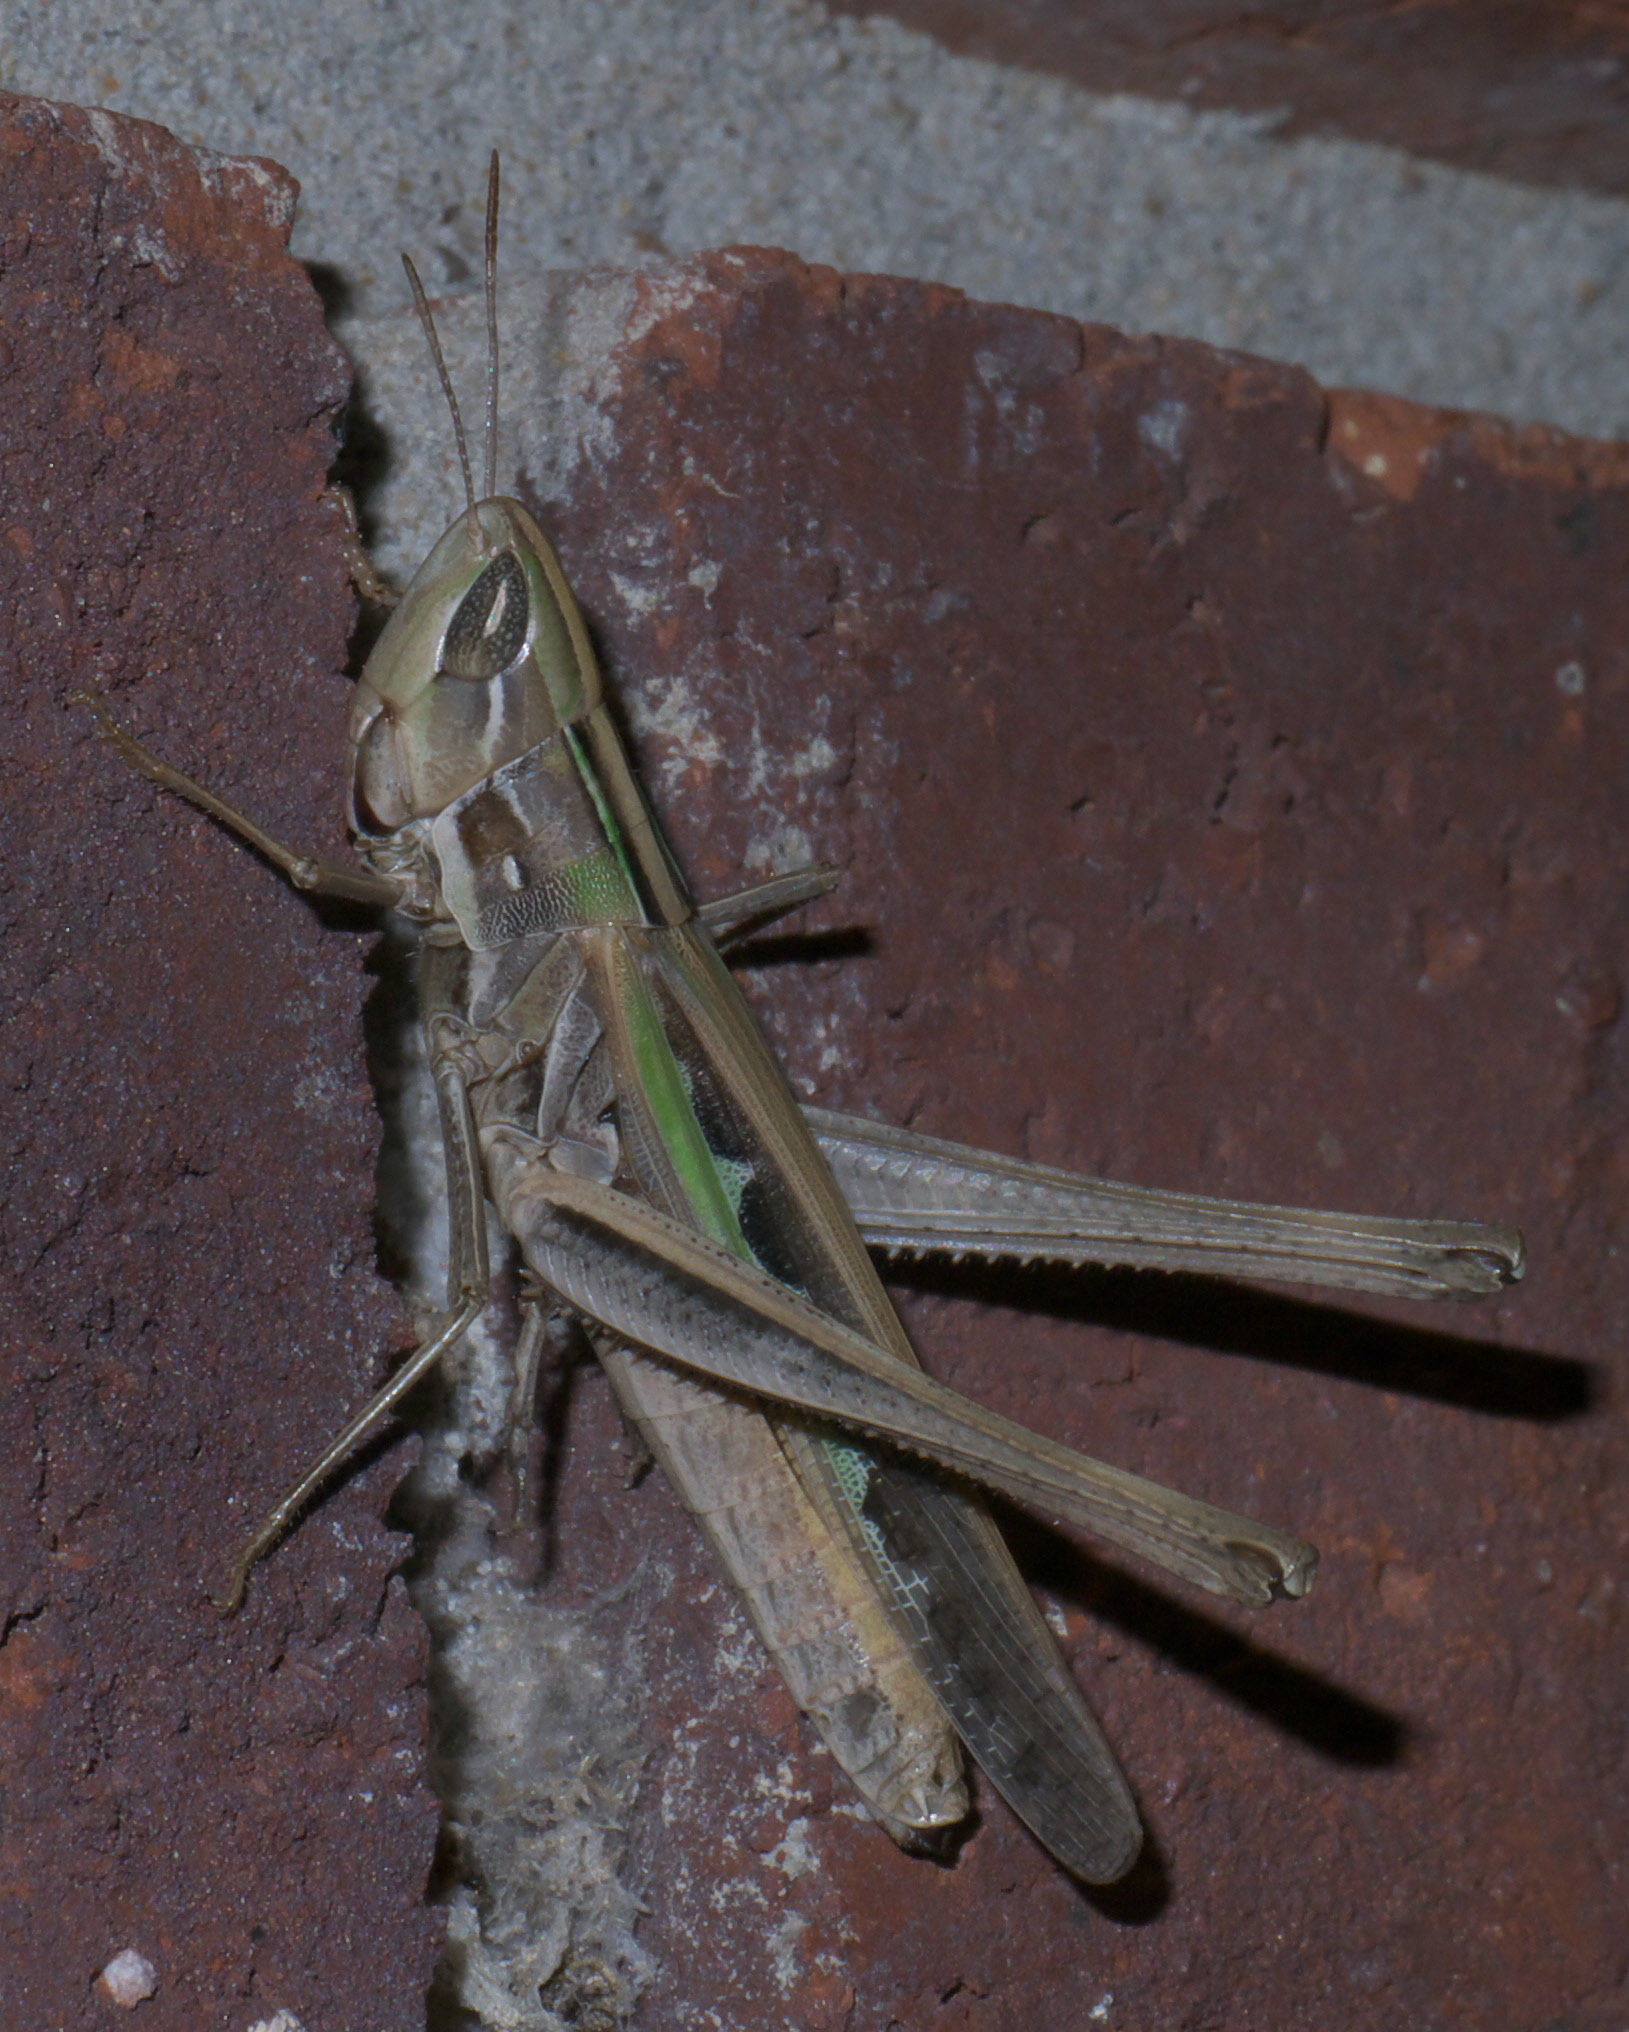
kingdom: Animalia
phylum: Arthropoda
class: Insecta
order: Orthoptera
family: Acrididae
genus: Syrbula
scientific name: Syrbula admirabilis
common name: Handsome grasshopper
